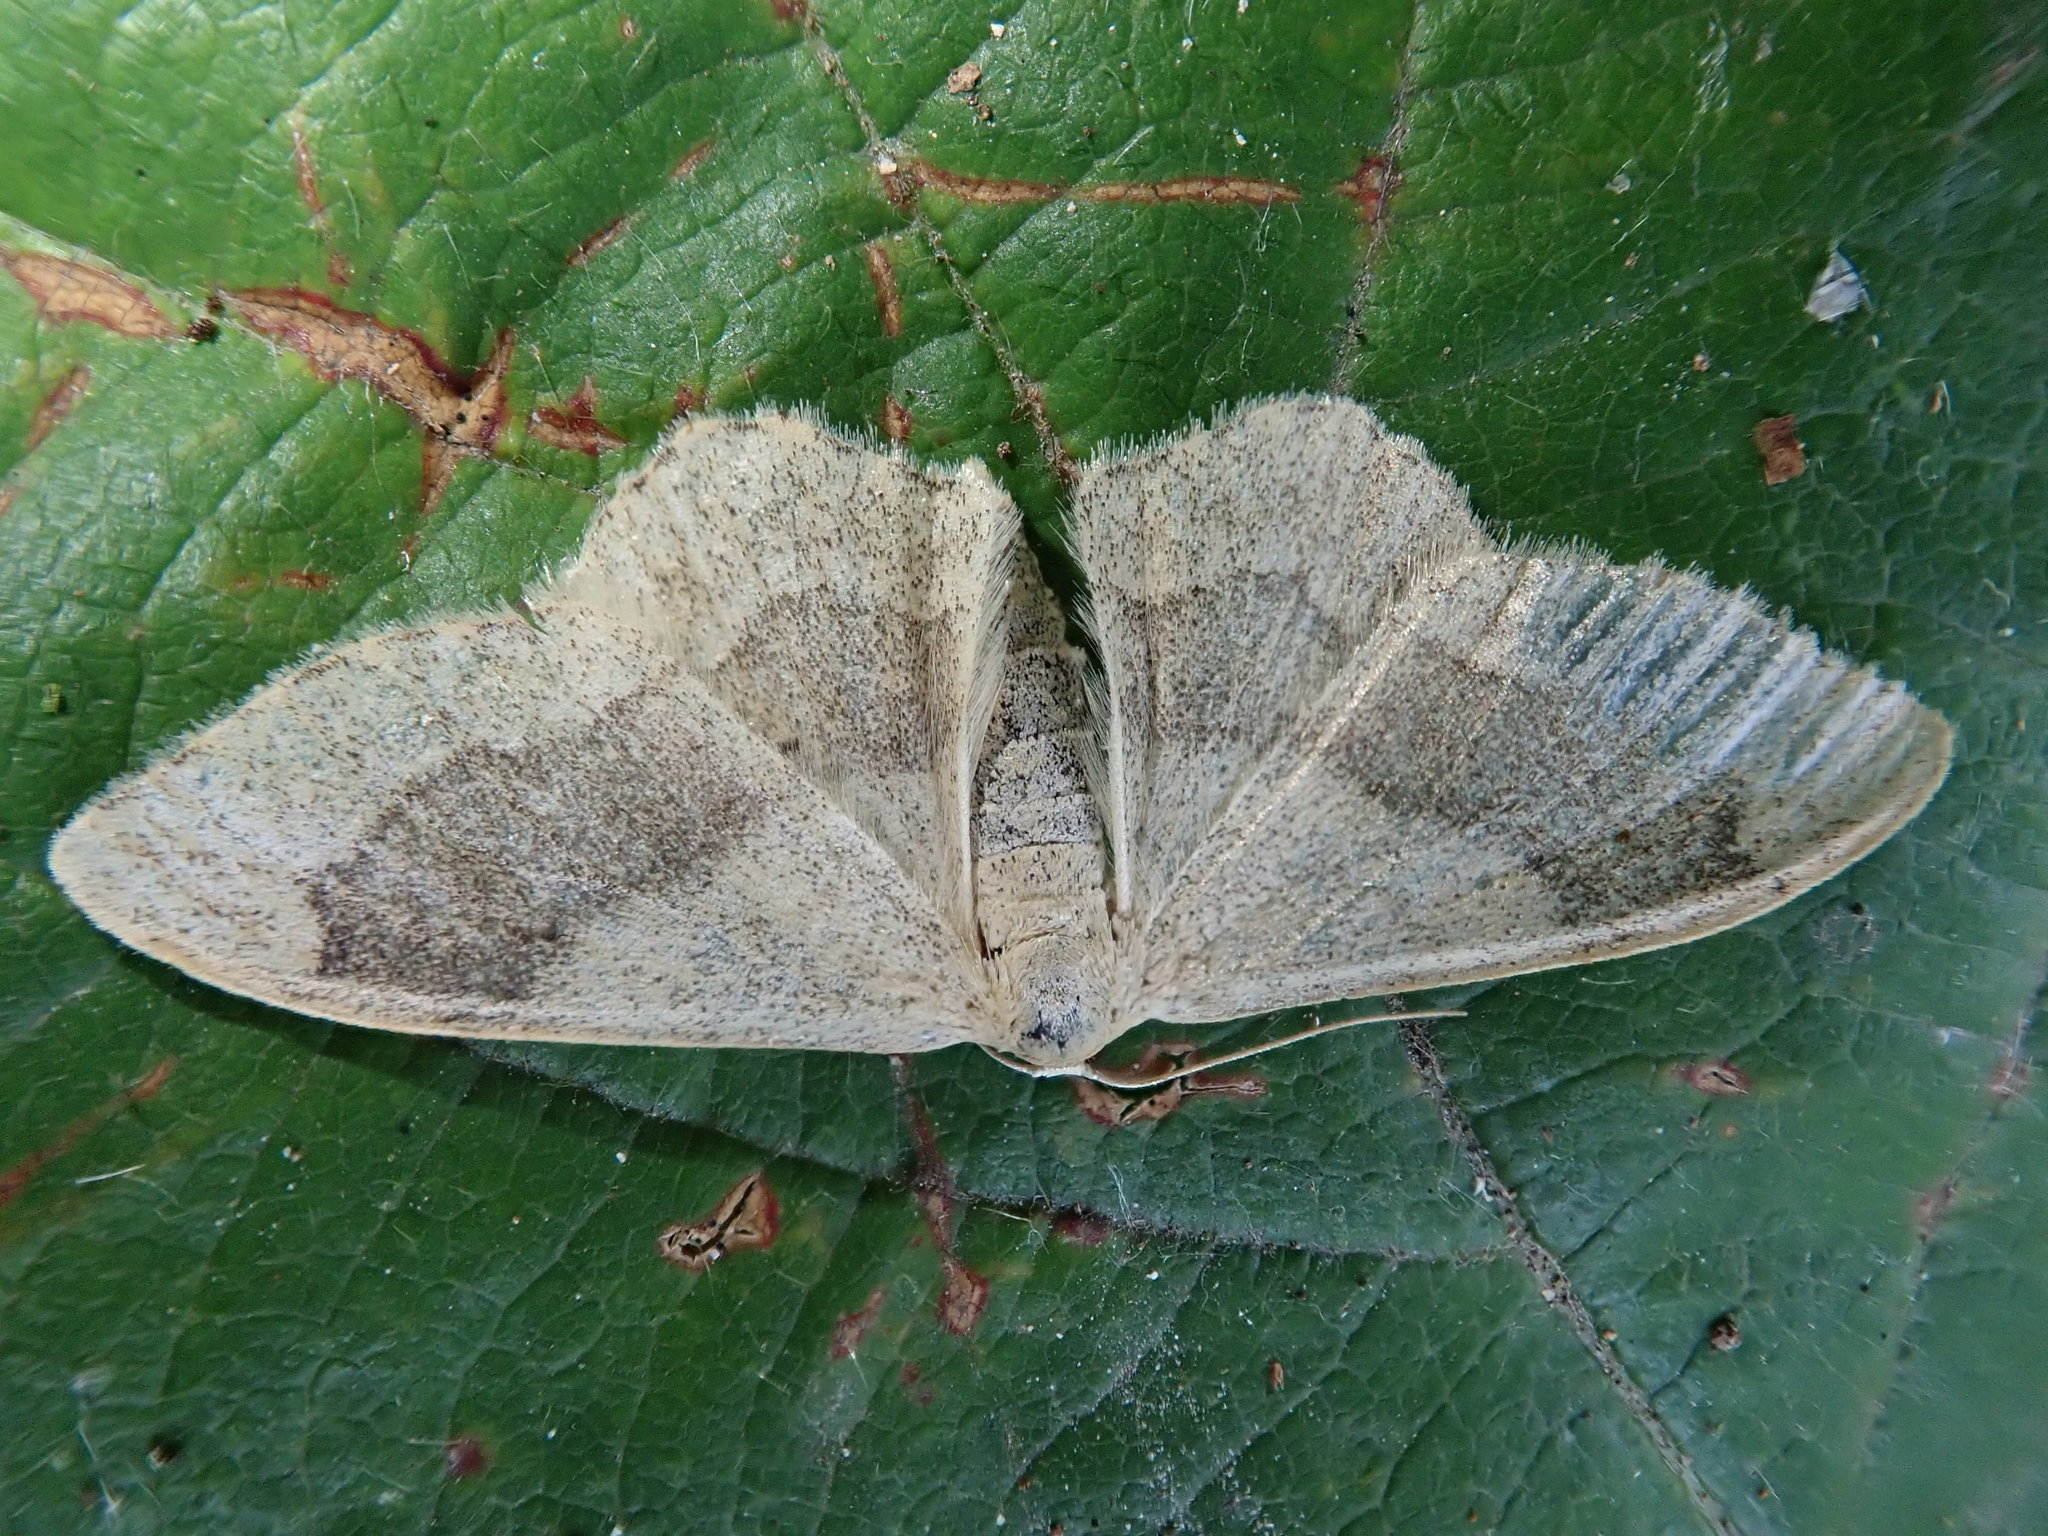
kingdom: Animalia
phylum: Arthropoda
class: Insecta
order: Lepidoptera
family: Geometridae
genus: Idaea
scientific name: Idaea aversata
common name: Riband wave
